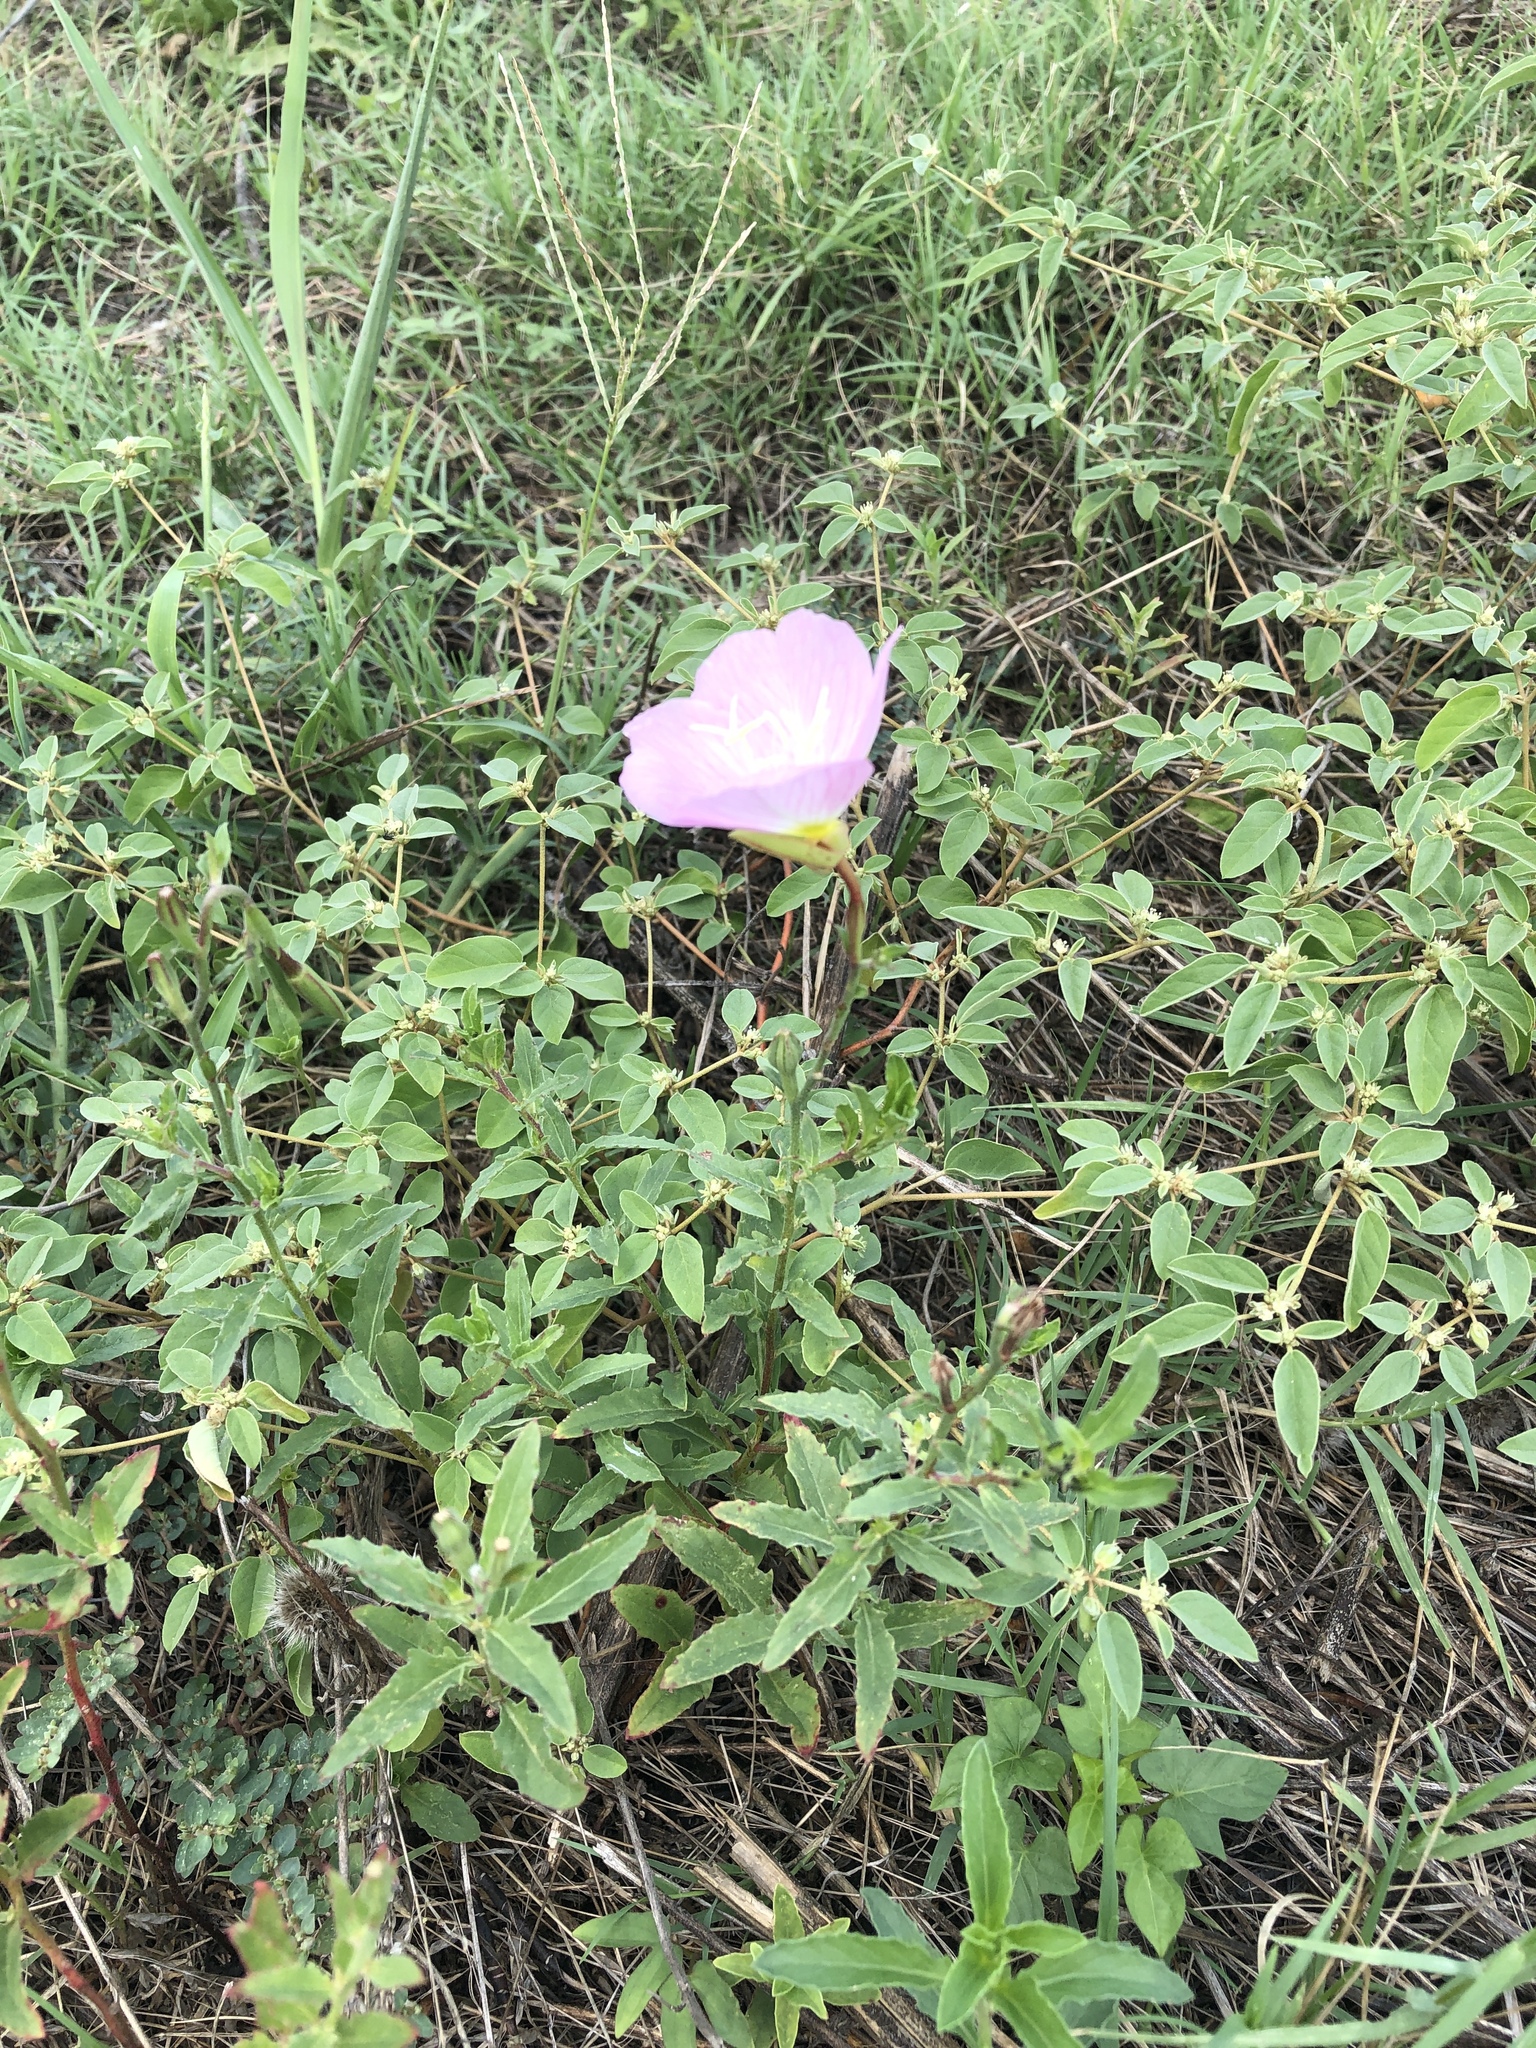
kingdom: Plantae
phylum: Tracheophyta
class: Magnoliopsida
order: Myrtales
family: Onagraceae
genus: Oenothera
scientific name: Oenothera speciosa
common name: White evening-primrose
